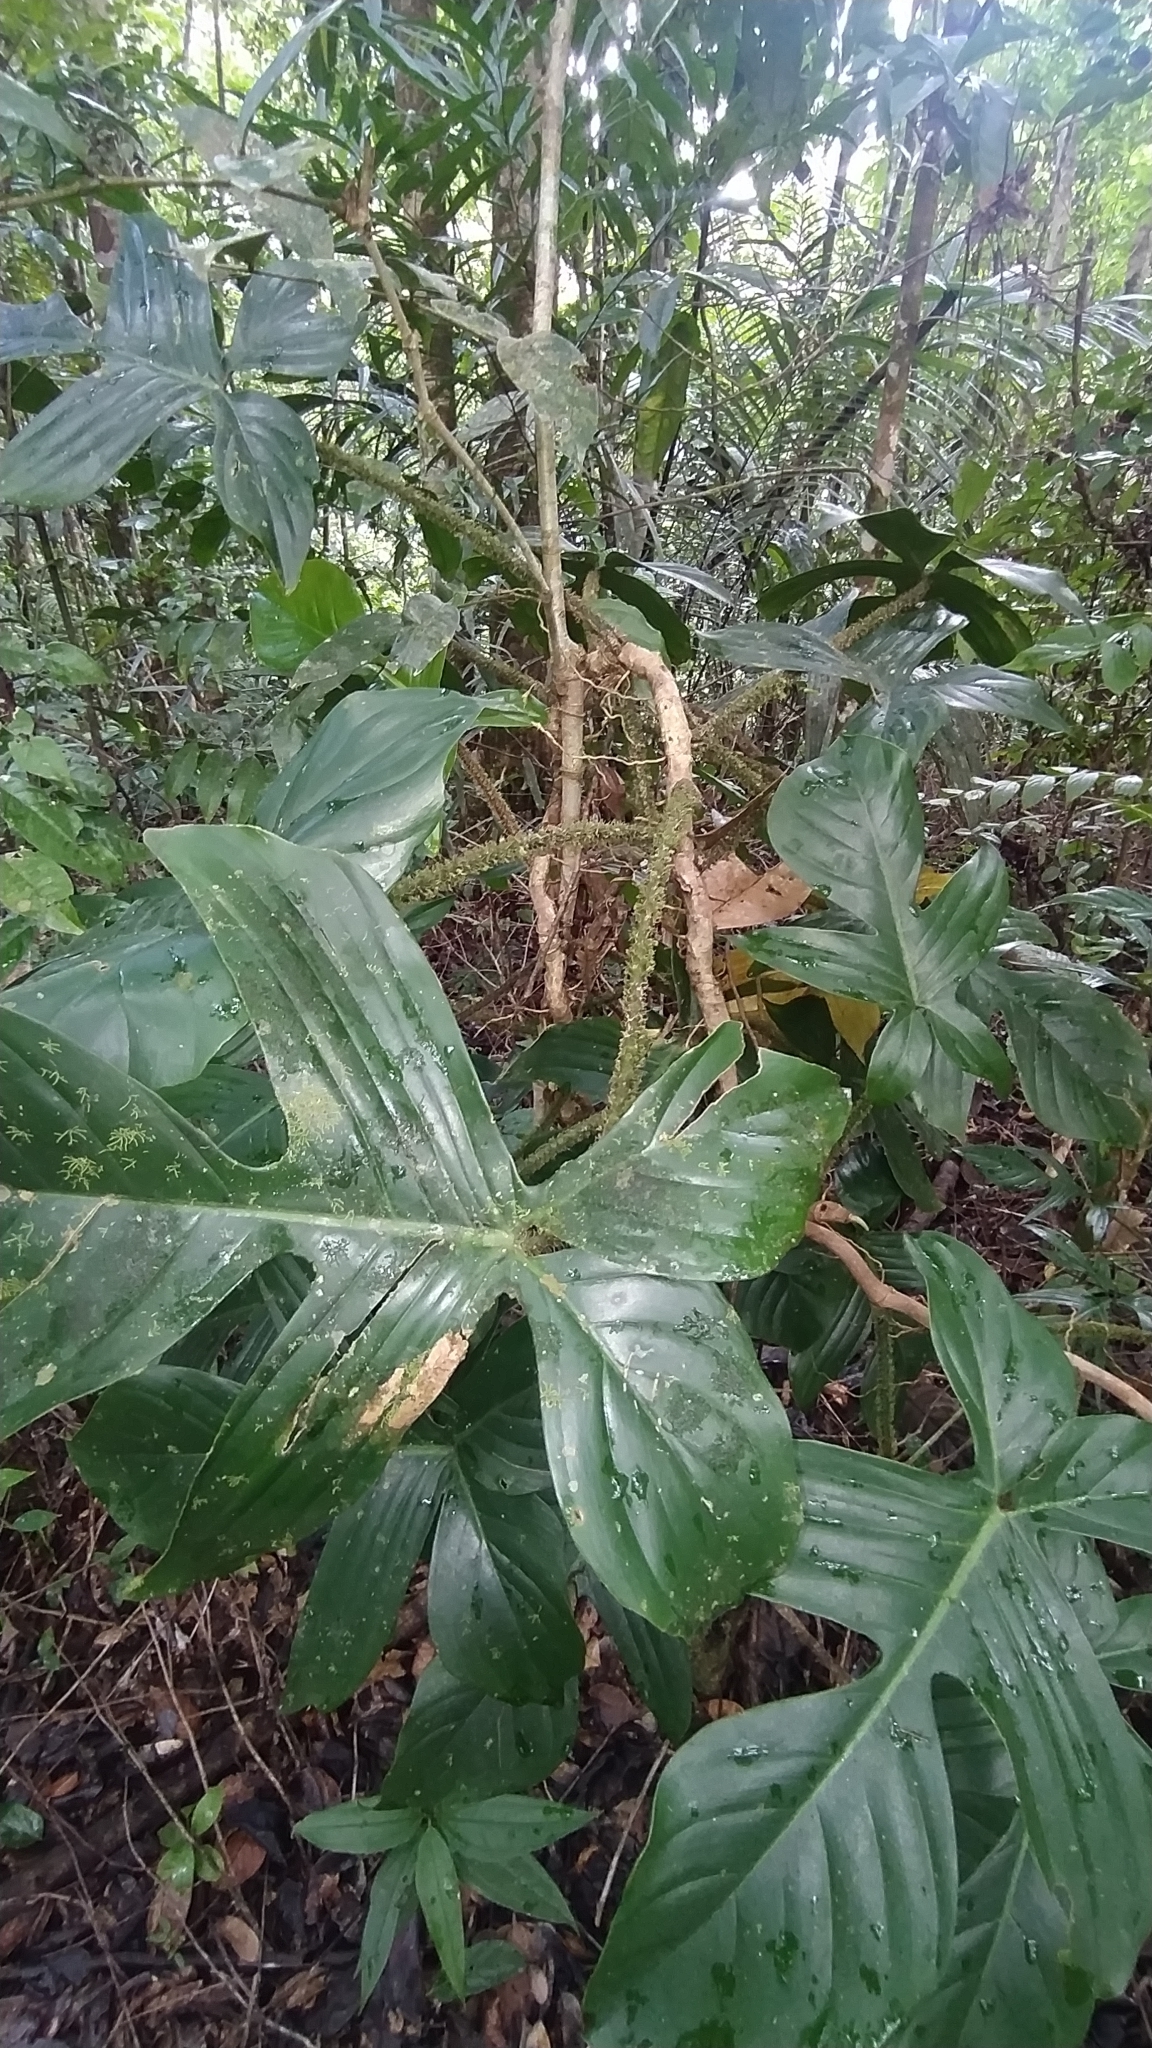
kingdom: Plantae
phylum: Tracheophyta
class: Liliopsida
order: Alismatales
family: Araceae
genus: Philodendron
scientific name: Philodendron squamiferum
